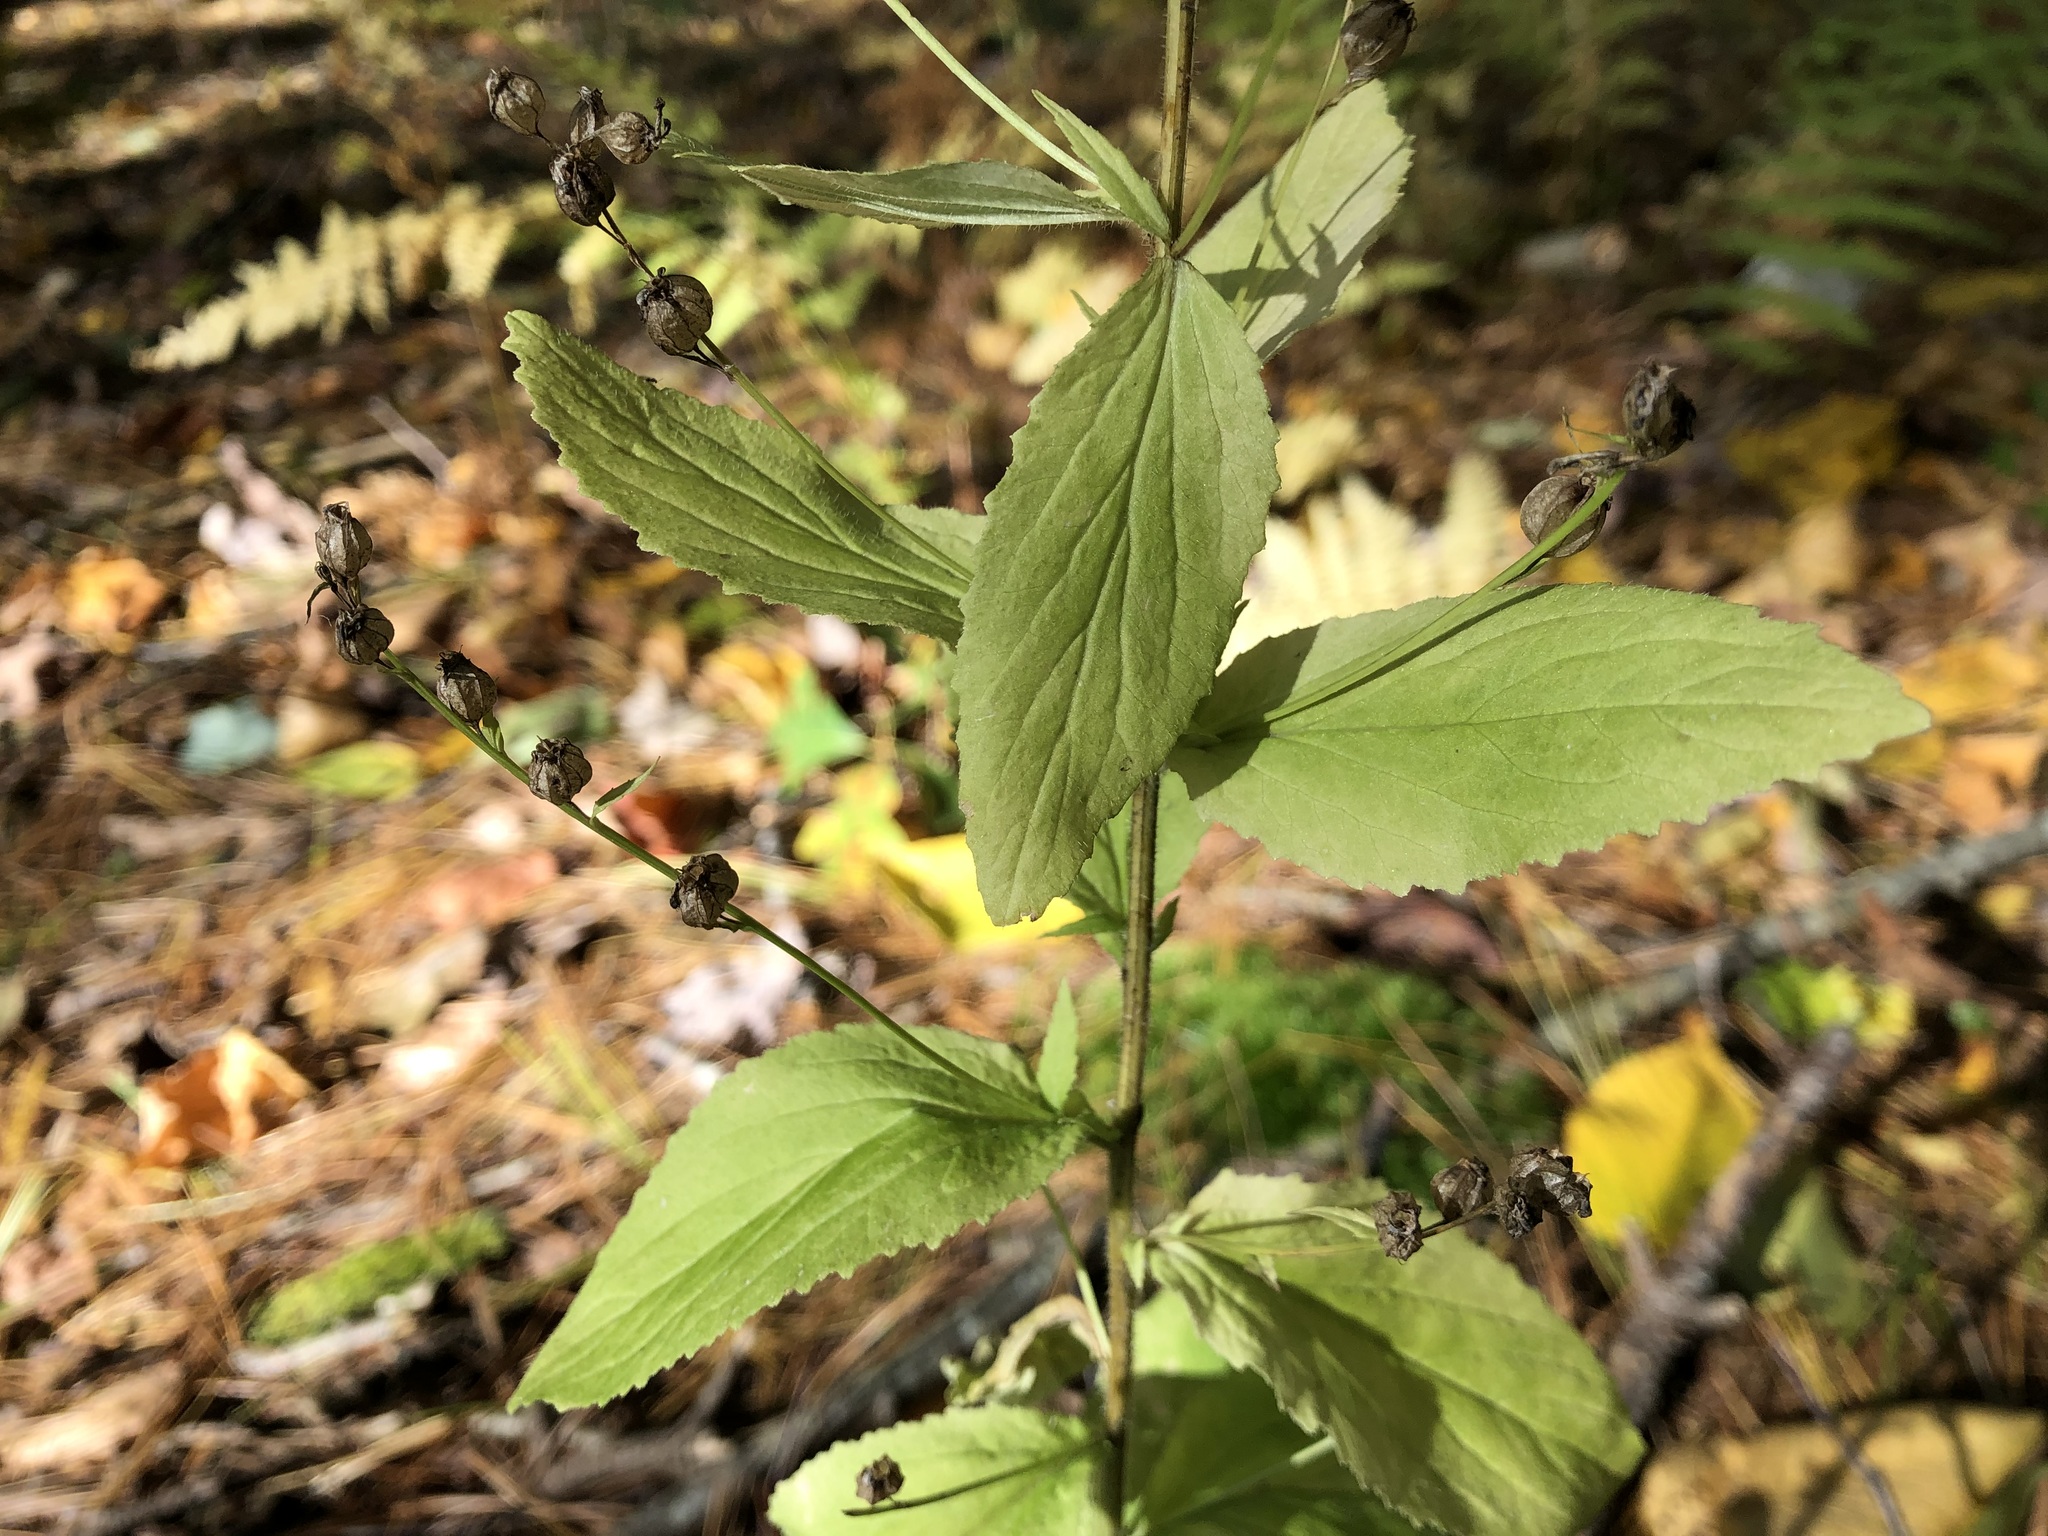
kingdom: Plantae
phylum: Tracheophyta
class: Magnoliopsida
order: Asterales
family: Campanulaceae
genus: Lobelia
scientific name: Lobelia inflata
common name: Indian tobacco
